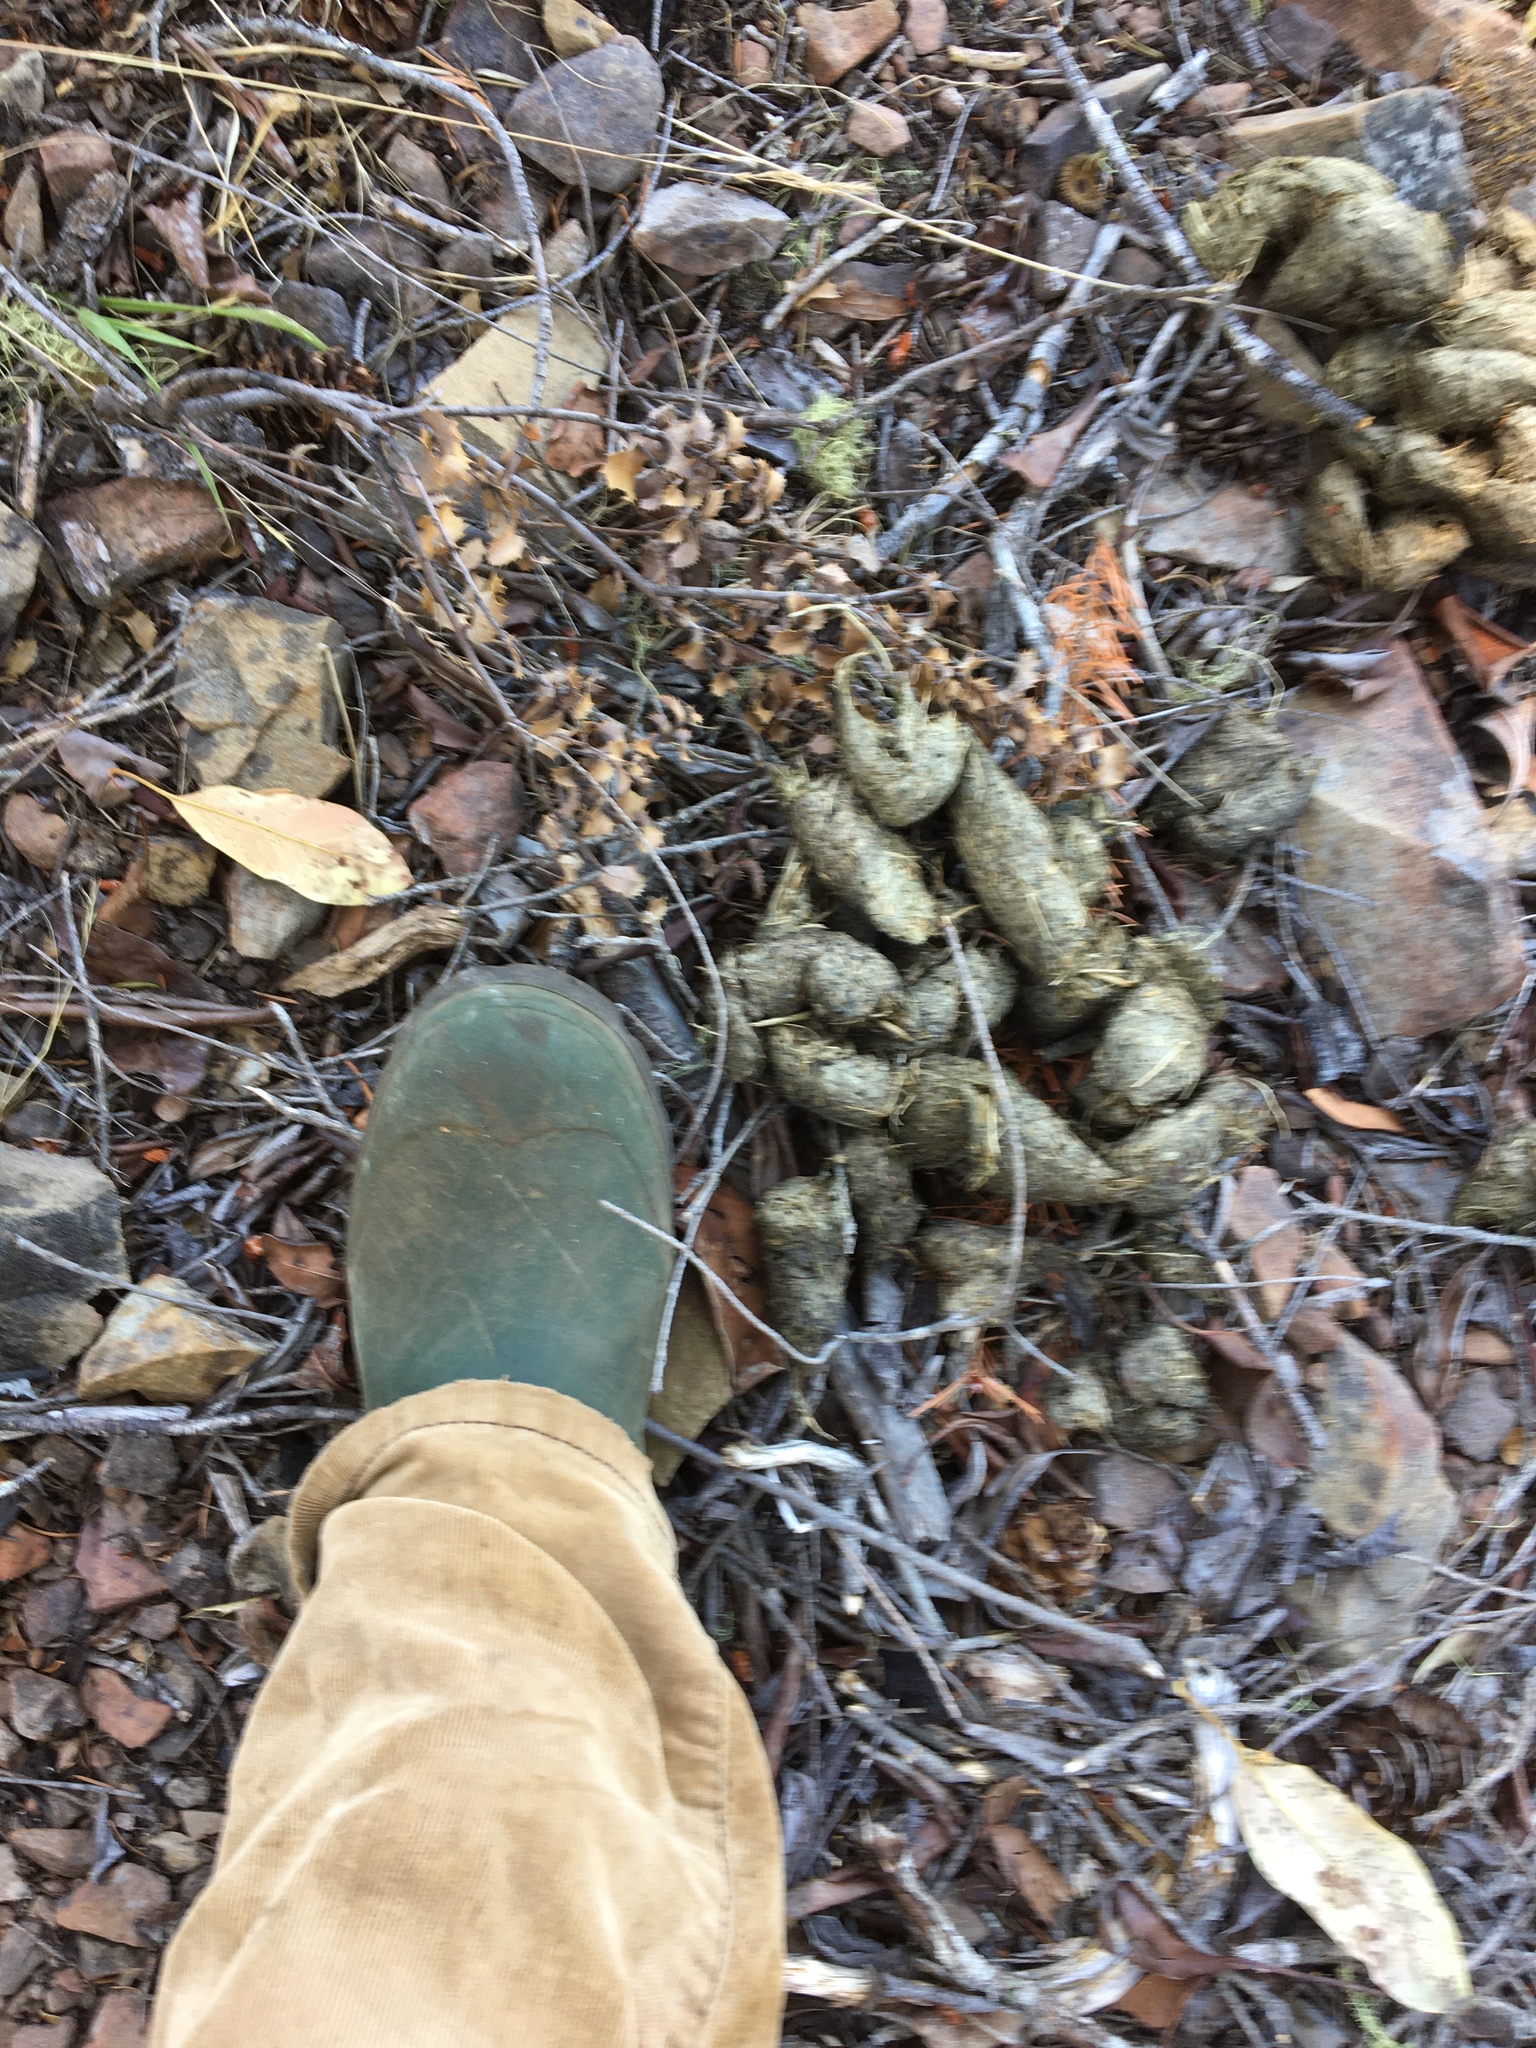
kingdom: Animalia
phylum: Chordata
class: Mammalia
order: Carnivora
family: Ursidae
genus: Ursus
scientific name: Ursus americanus
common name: American black bear
